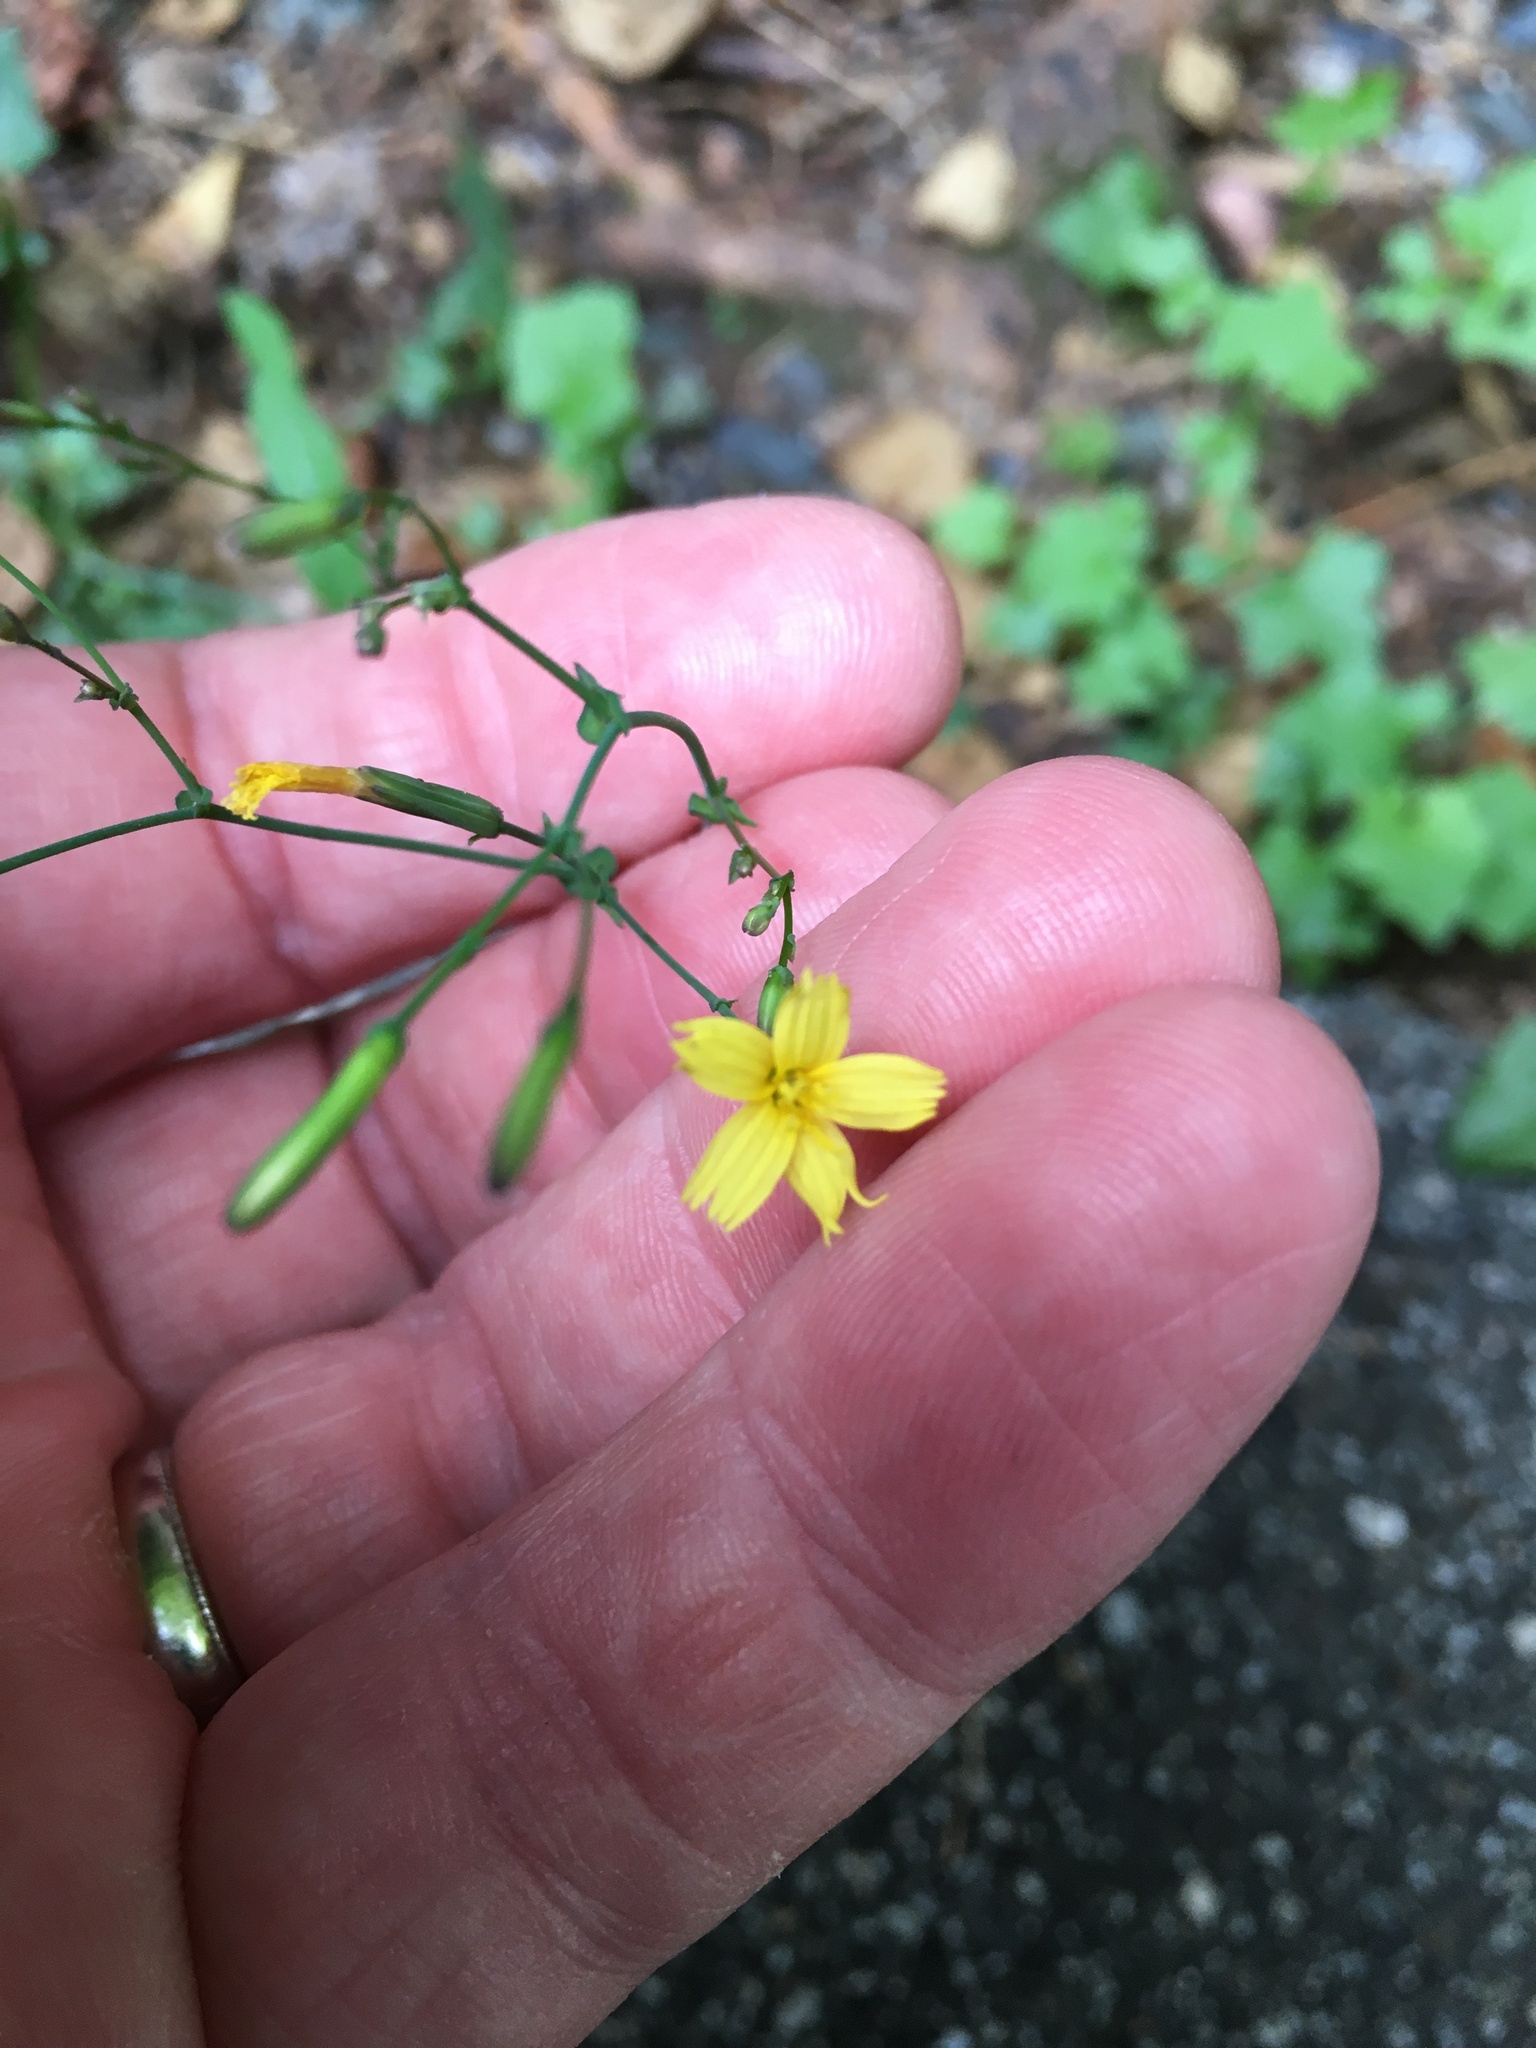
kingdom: Plantae
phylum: Tracheophyta
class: Magnoliopsida
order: Asterales
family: Asteraceae
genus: Mycelis
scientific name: Mycelis muralis
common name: Wall lettuce
